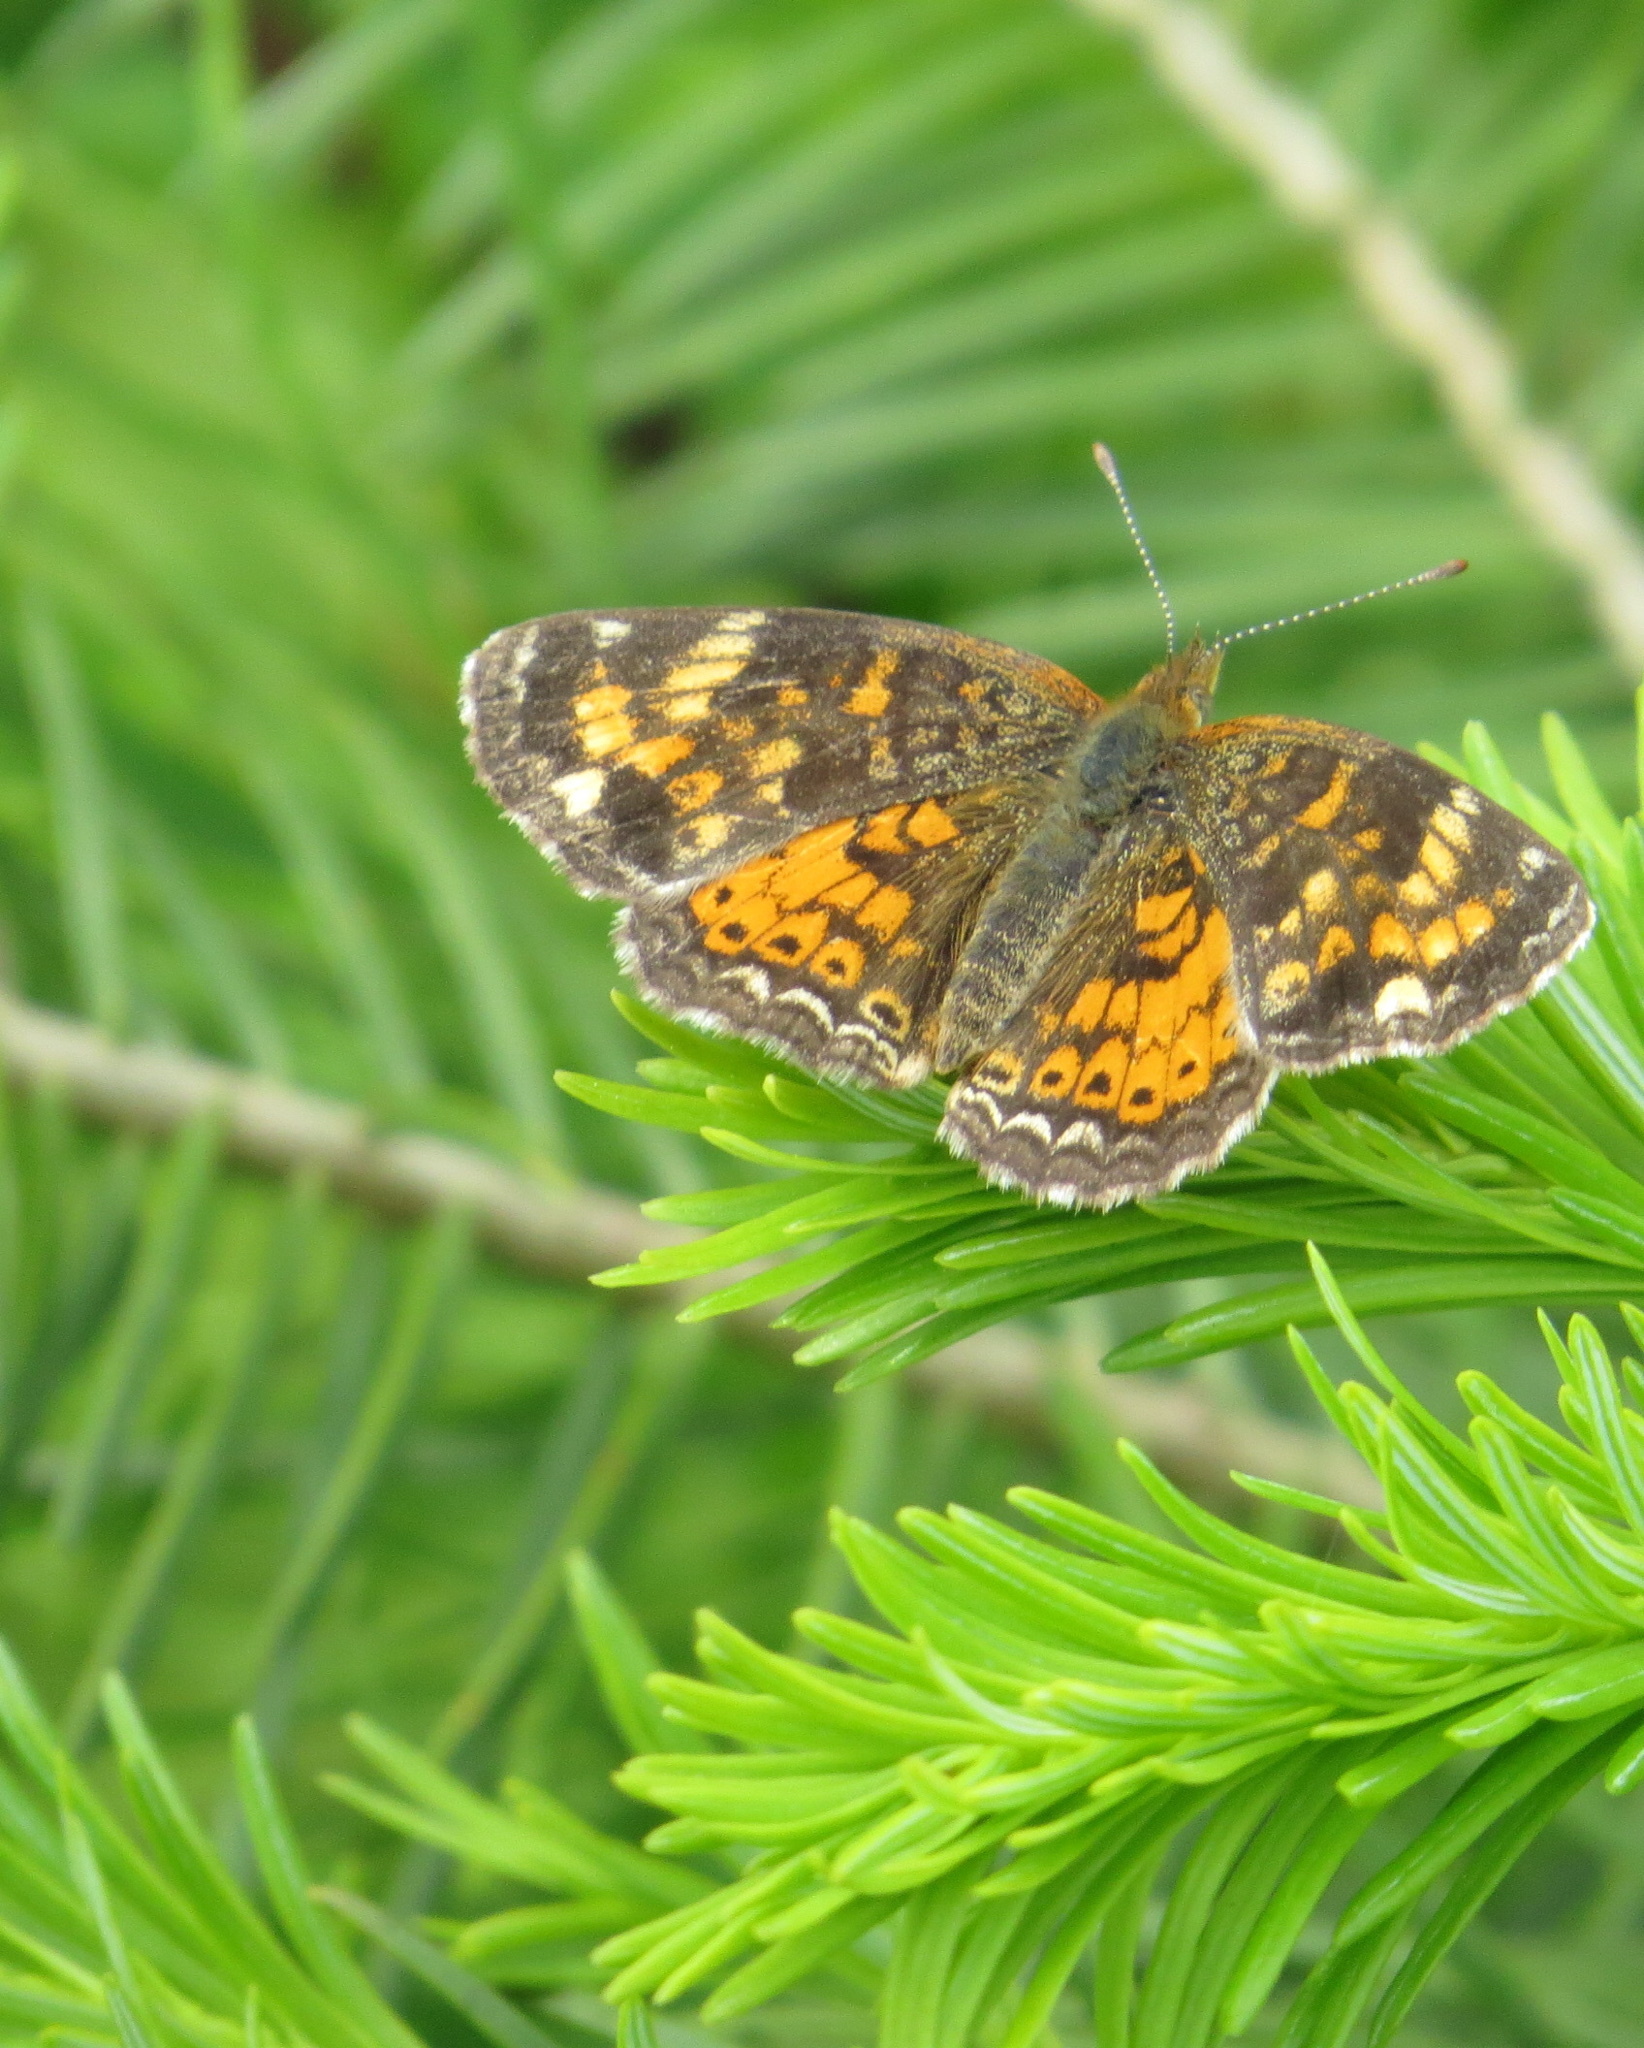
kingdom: Animalia
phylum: Arthropoda
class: Insecta
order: Lepidoptera
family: Nymphalidae
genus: Phyciodes
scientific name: Phyciodes tharos
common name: Pearl crescent
